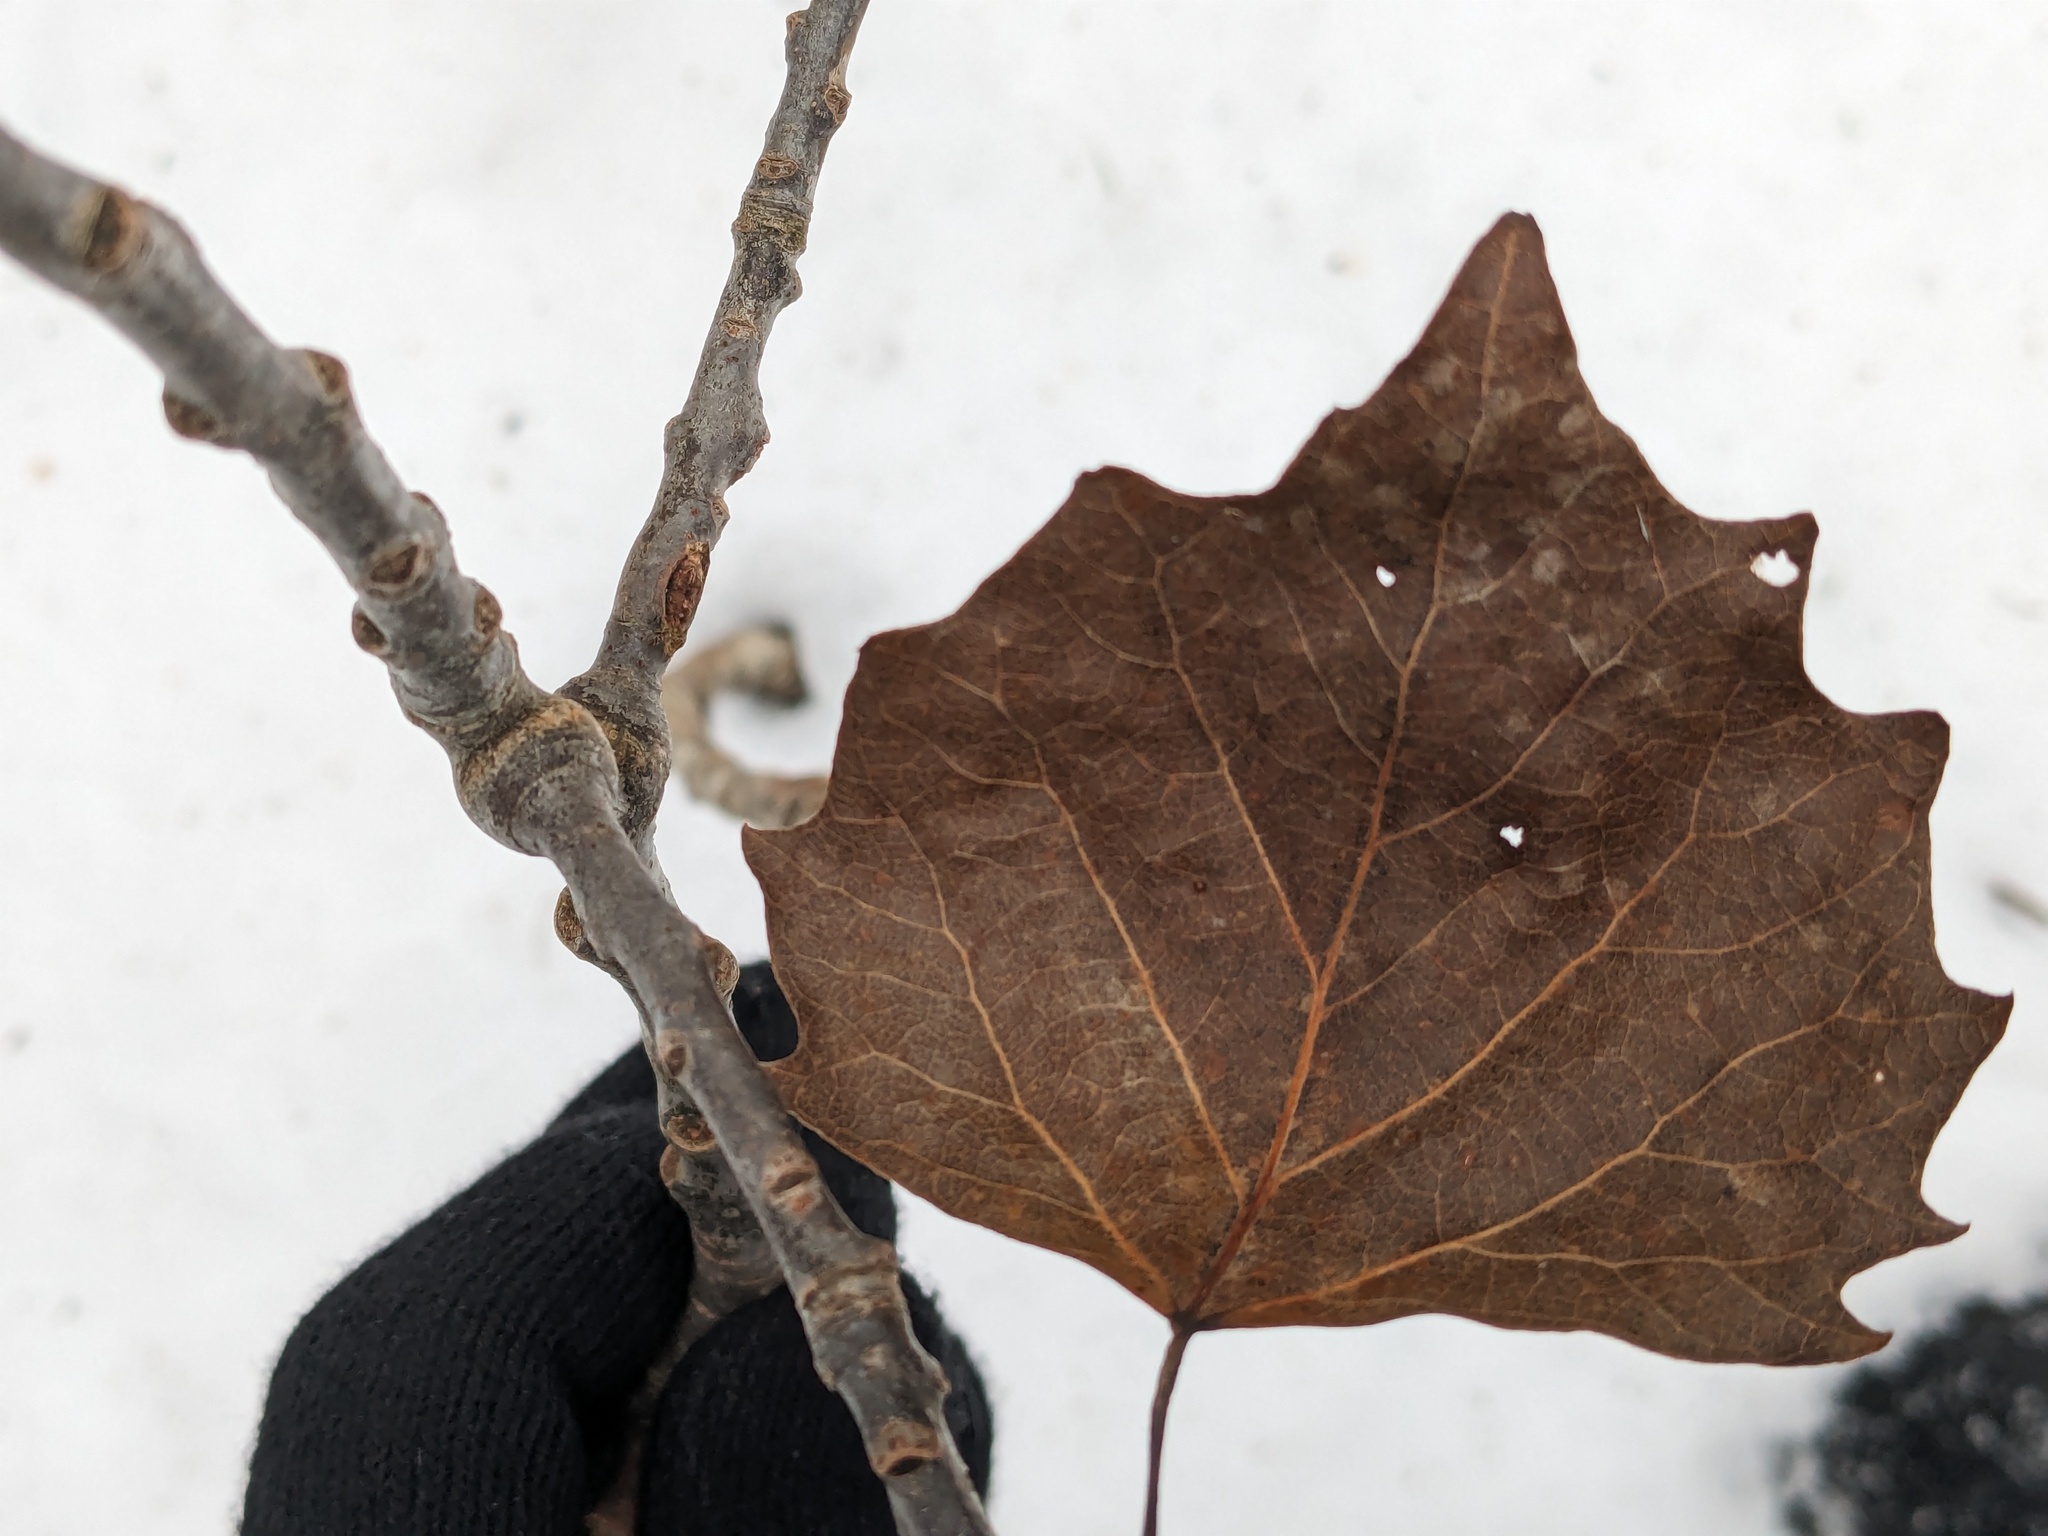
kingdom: Plantae
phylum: Tracheophyta
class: Magnoliopsida
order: Malpighiales
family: Salicaceae
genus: Populus
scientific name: Populus grandidentata
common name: Bigtooth aspen
